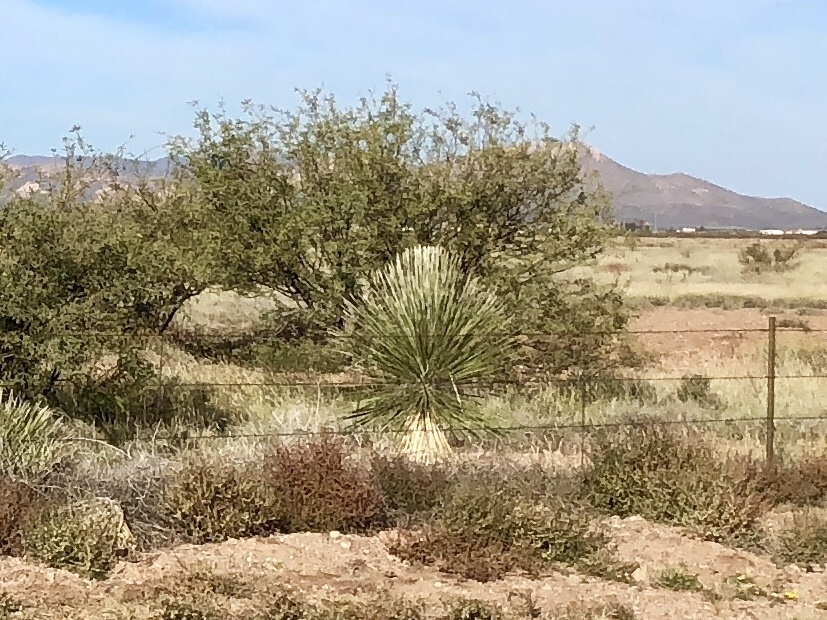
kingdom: Plantae
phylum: Tracheophyta
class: Liliopsida
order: Asparagales
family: Asparagaceae
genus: Yucca
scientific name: Yucca elata
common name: Palmella
